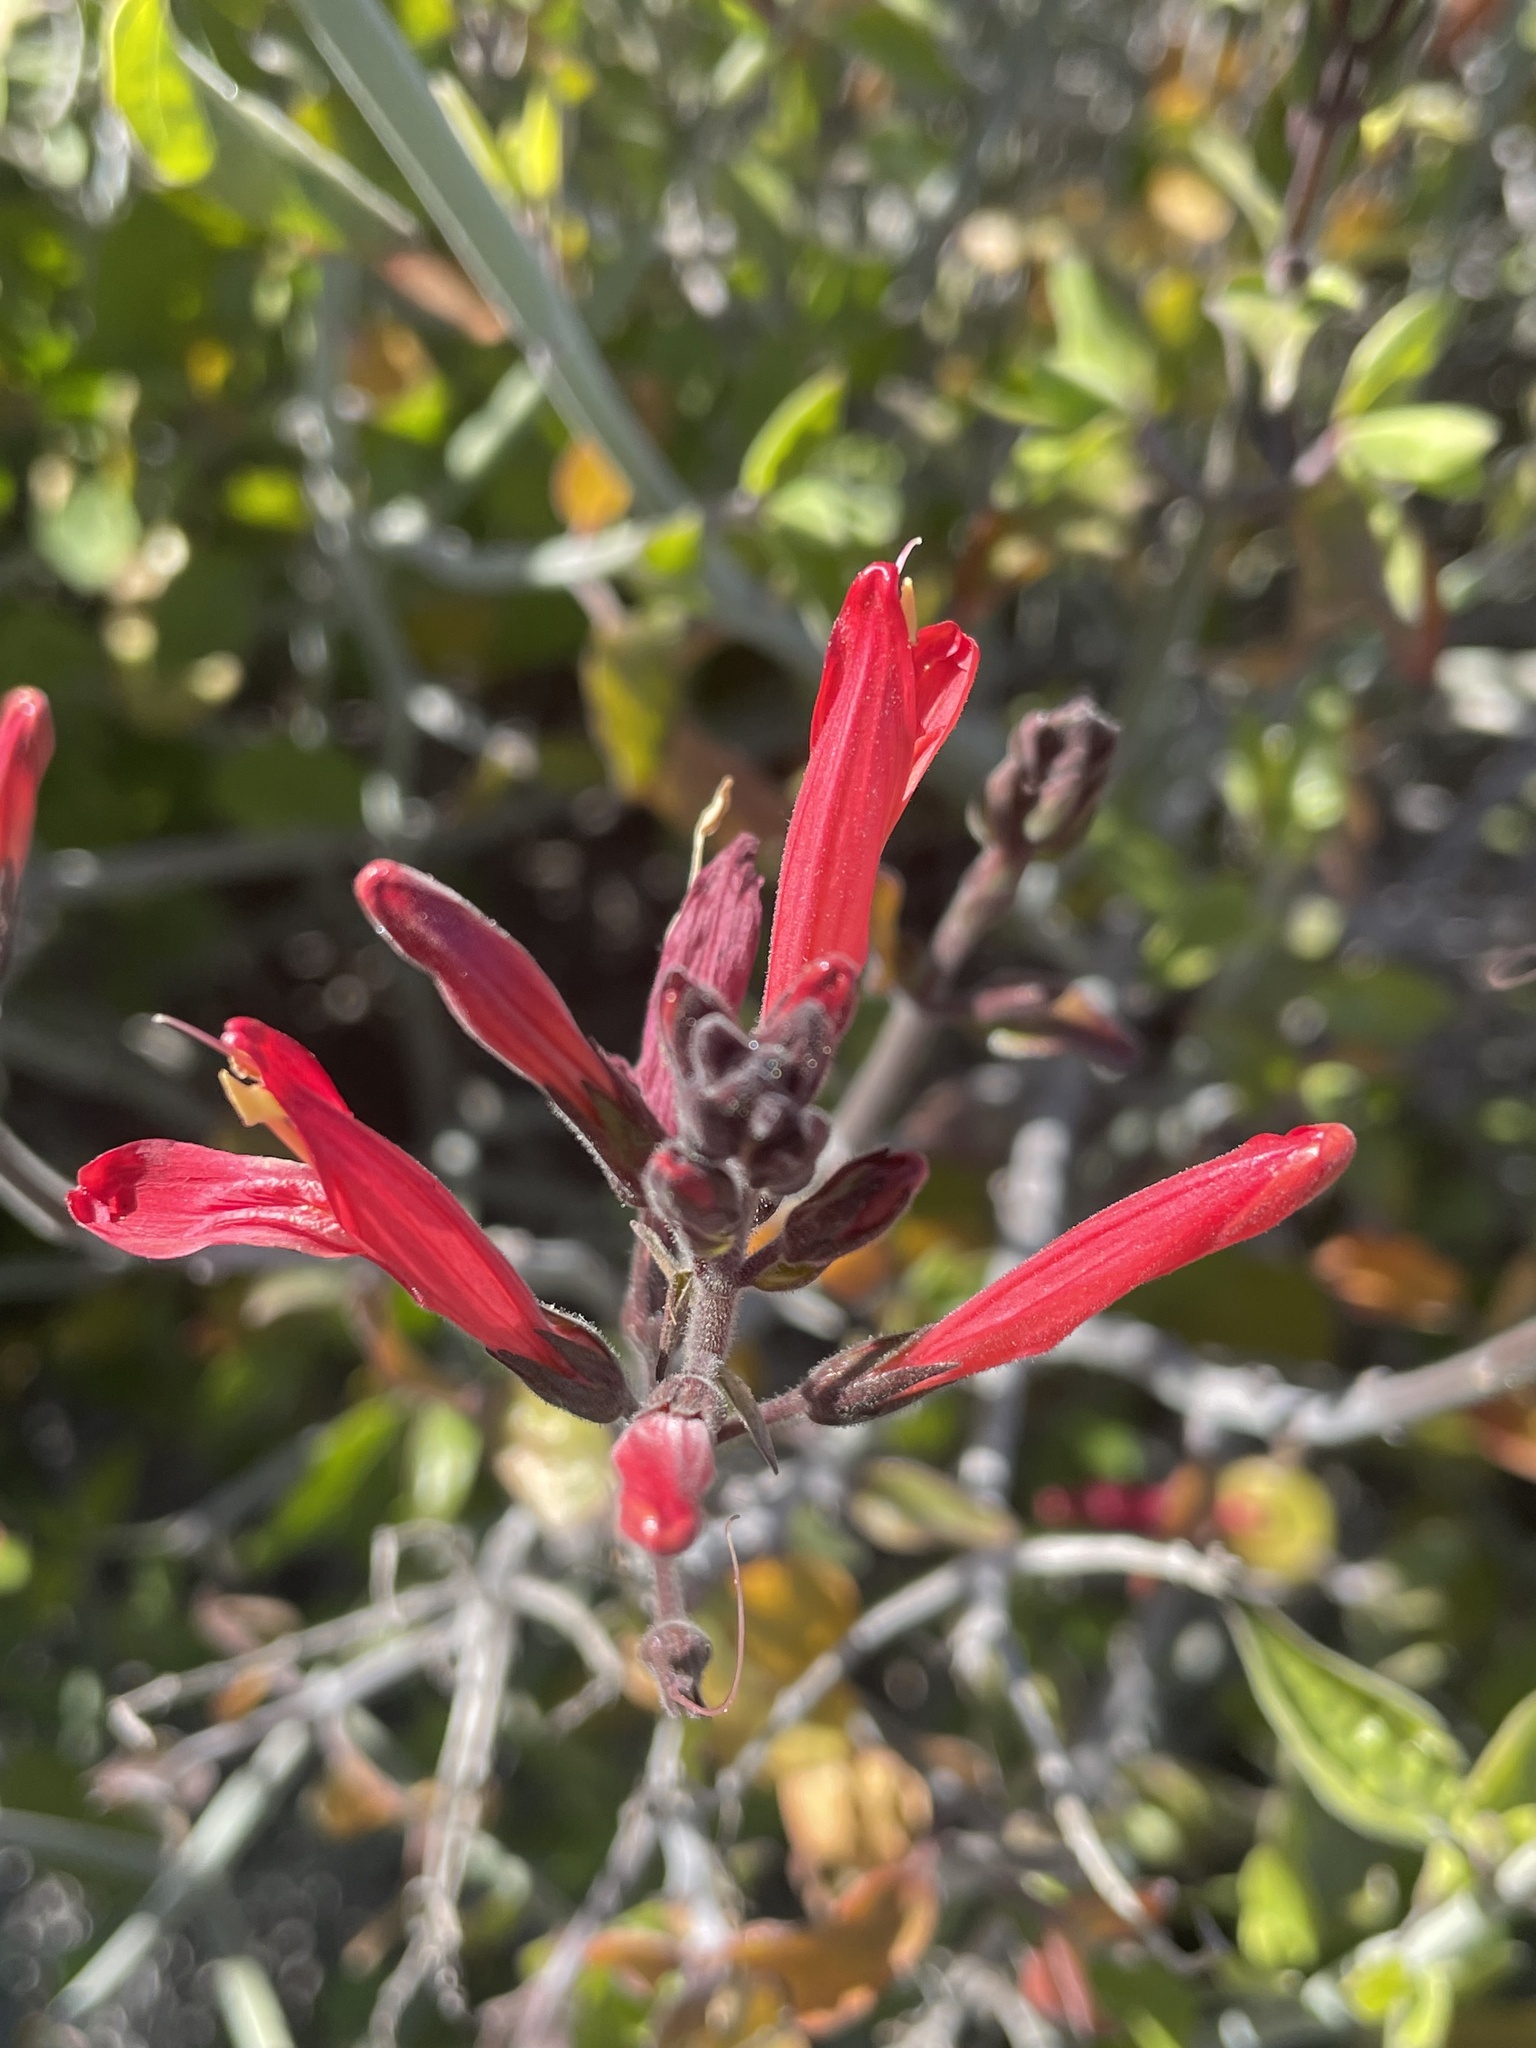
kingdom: Plantae
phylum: Tracheophyta
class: Magnoliopsida
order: Lamiales
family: Acanthaceae
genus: Justicia
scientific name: Justicia californica
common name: Chuparosa-honeysuckle
